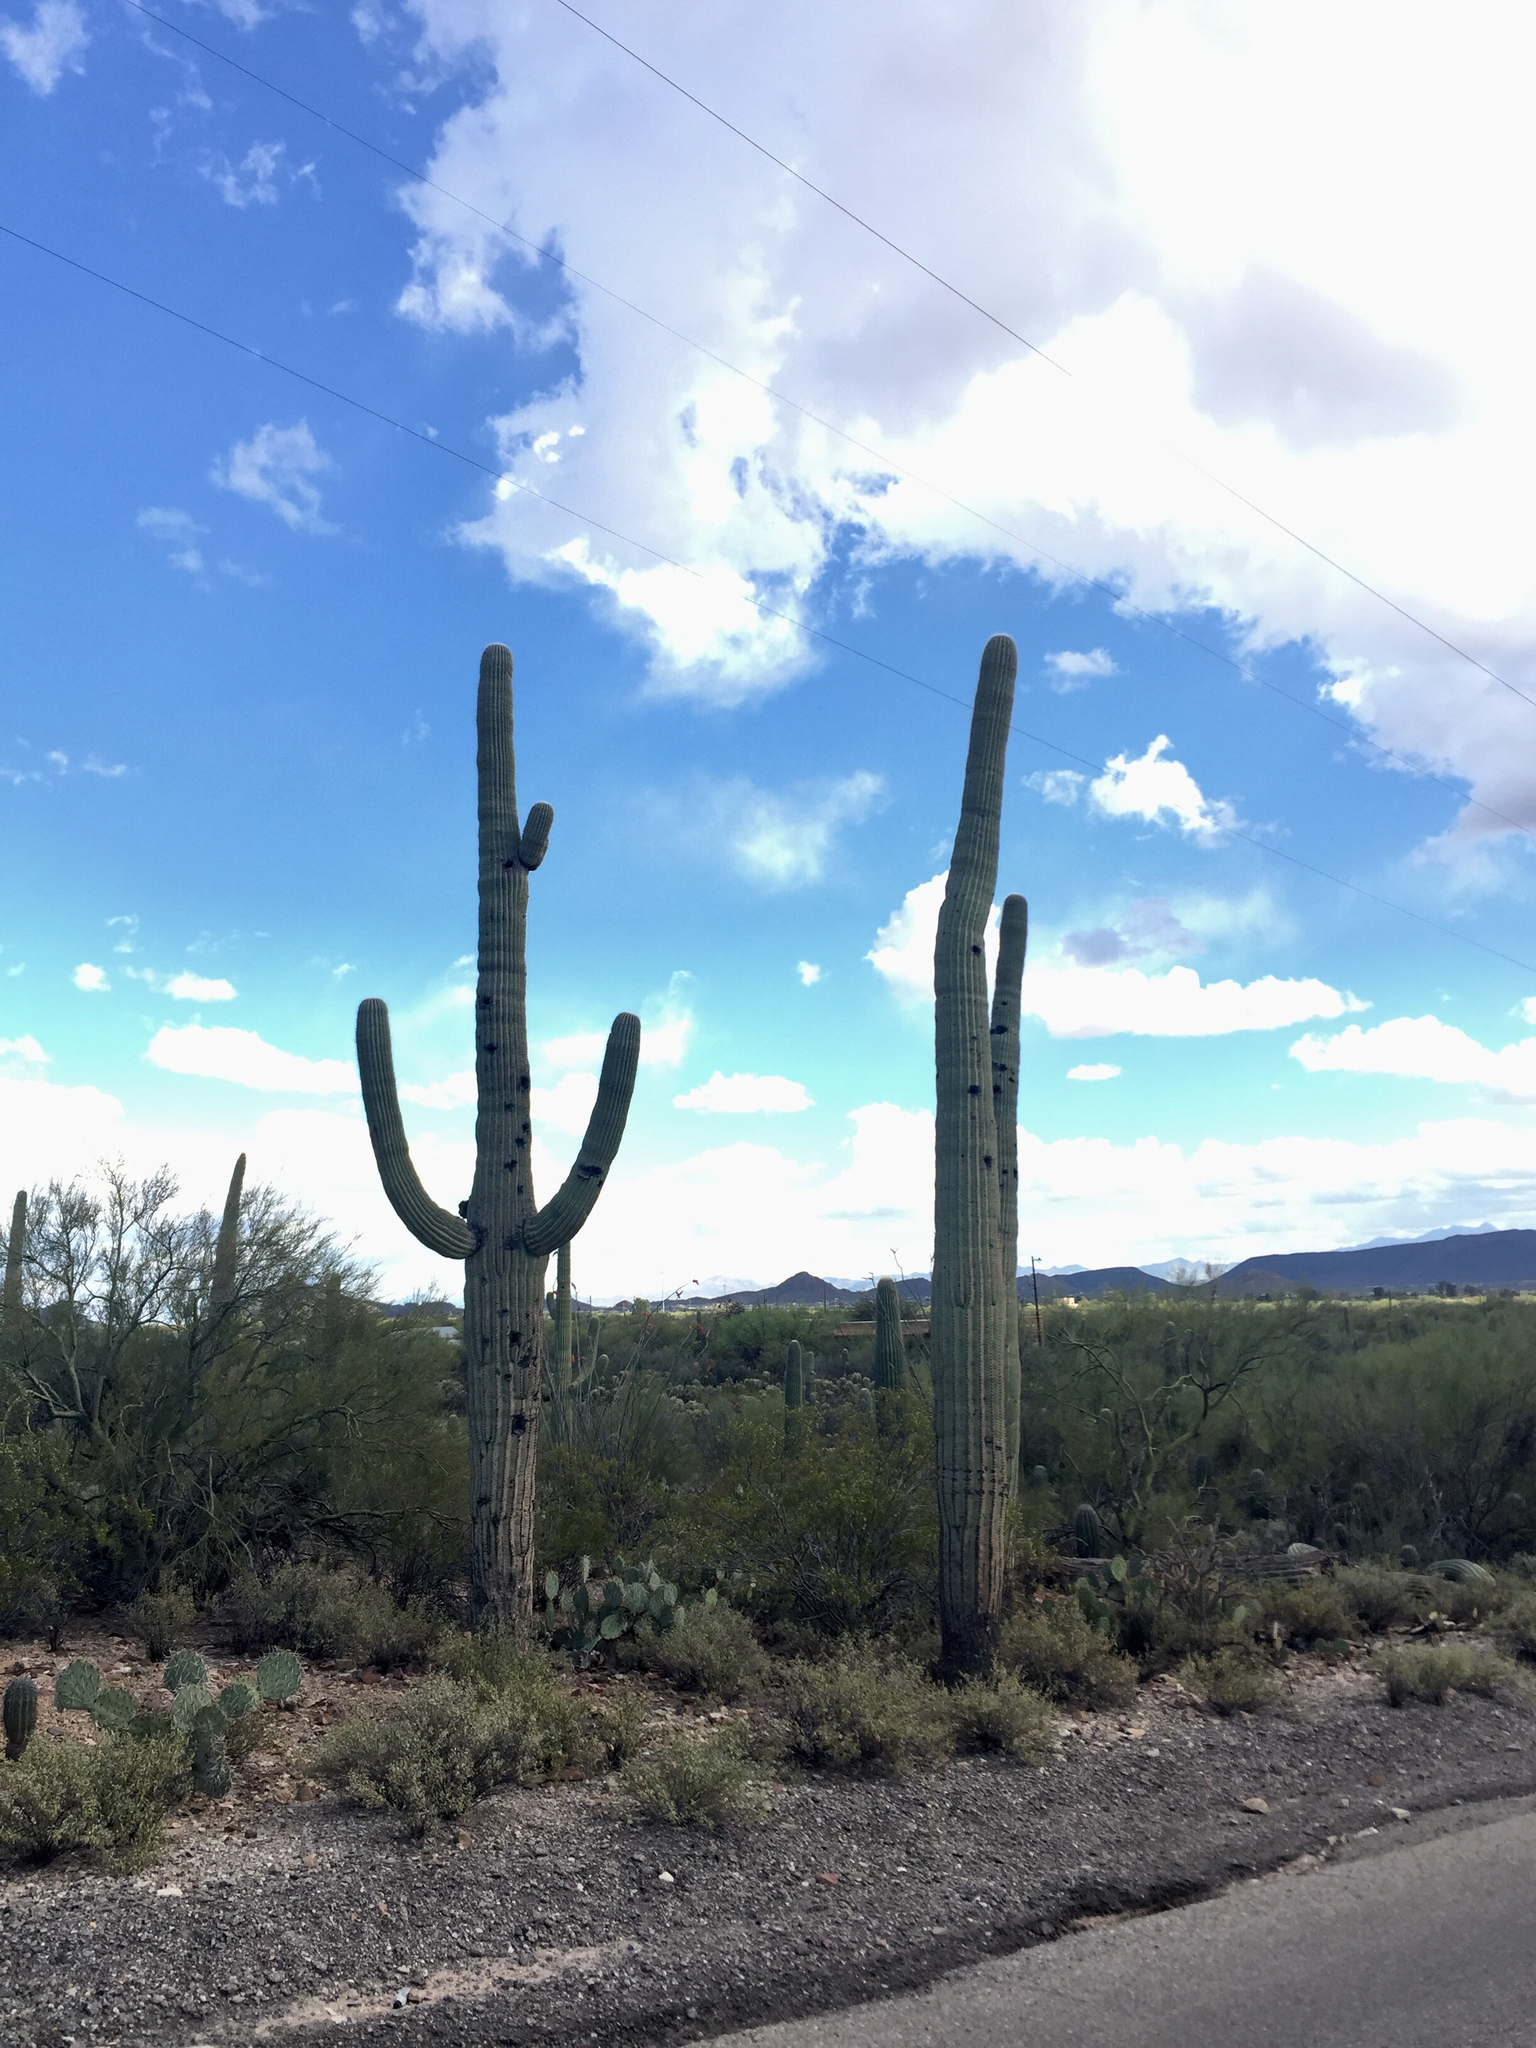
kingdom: Plantae
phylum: Tracheophyta
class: Magnoliopsida
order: Caryophyllales
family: Cactaceae
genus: Carnegiea
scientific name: Carnegiea gigantea
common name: Saguaro
